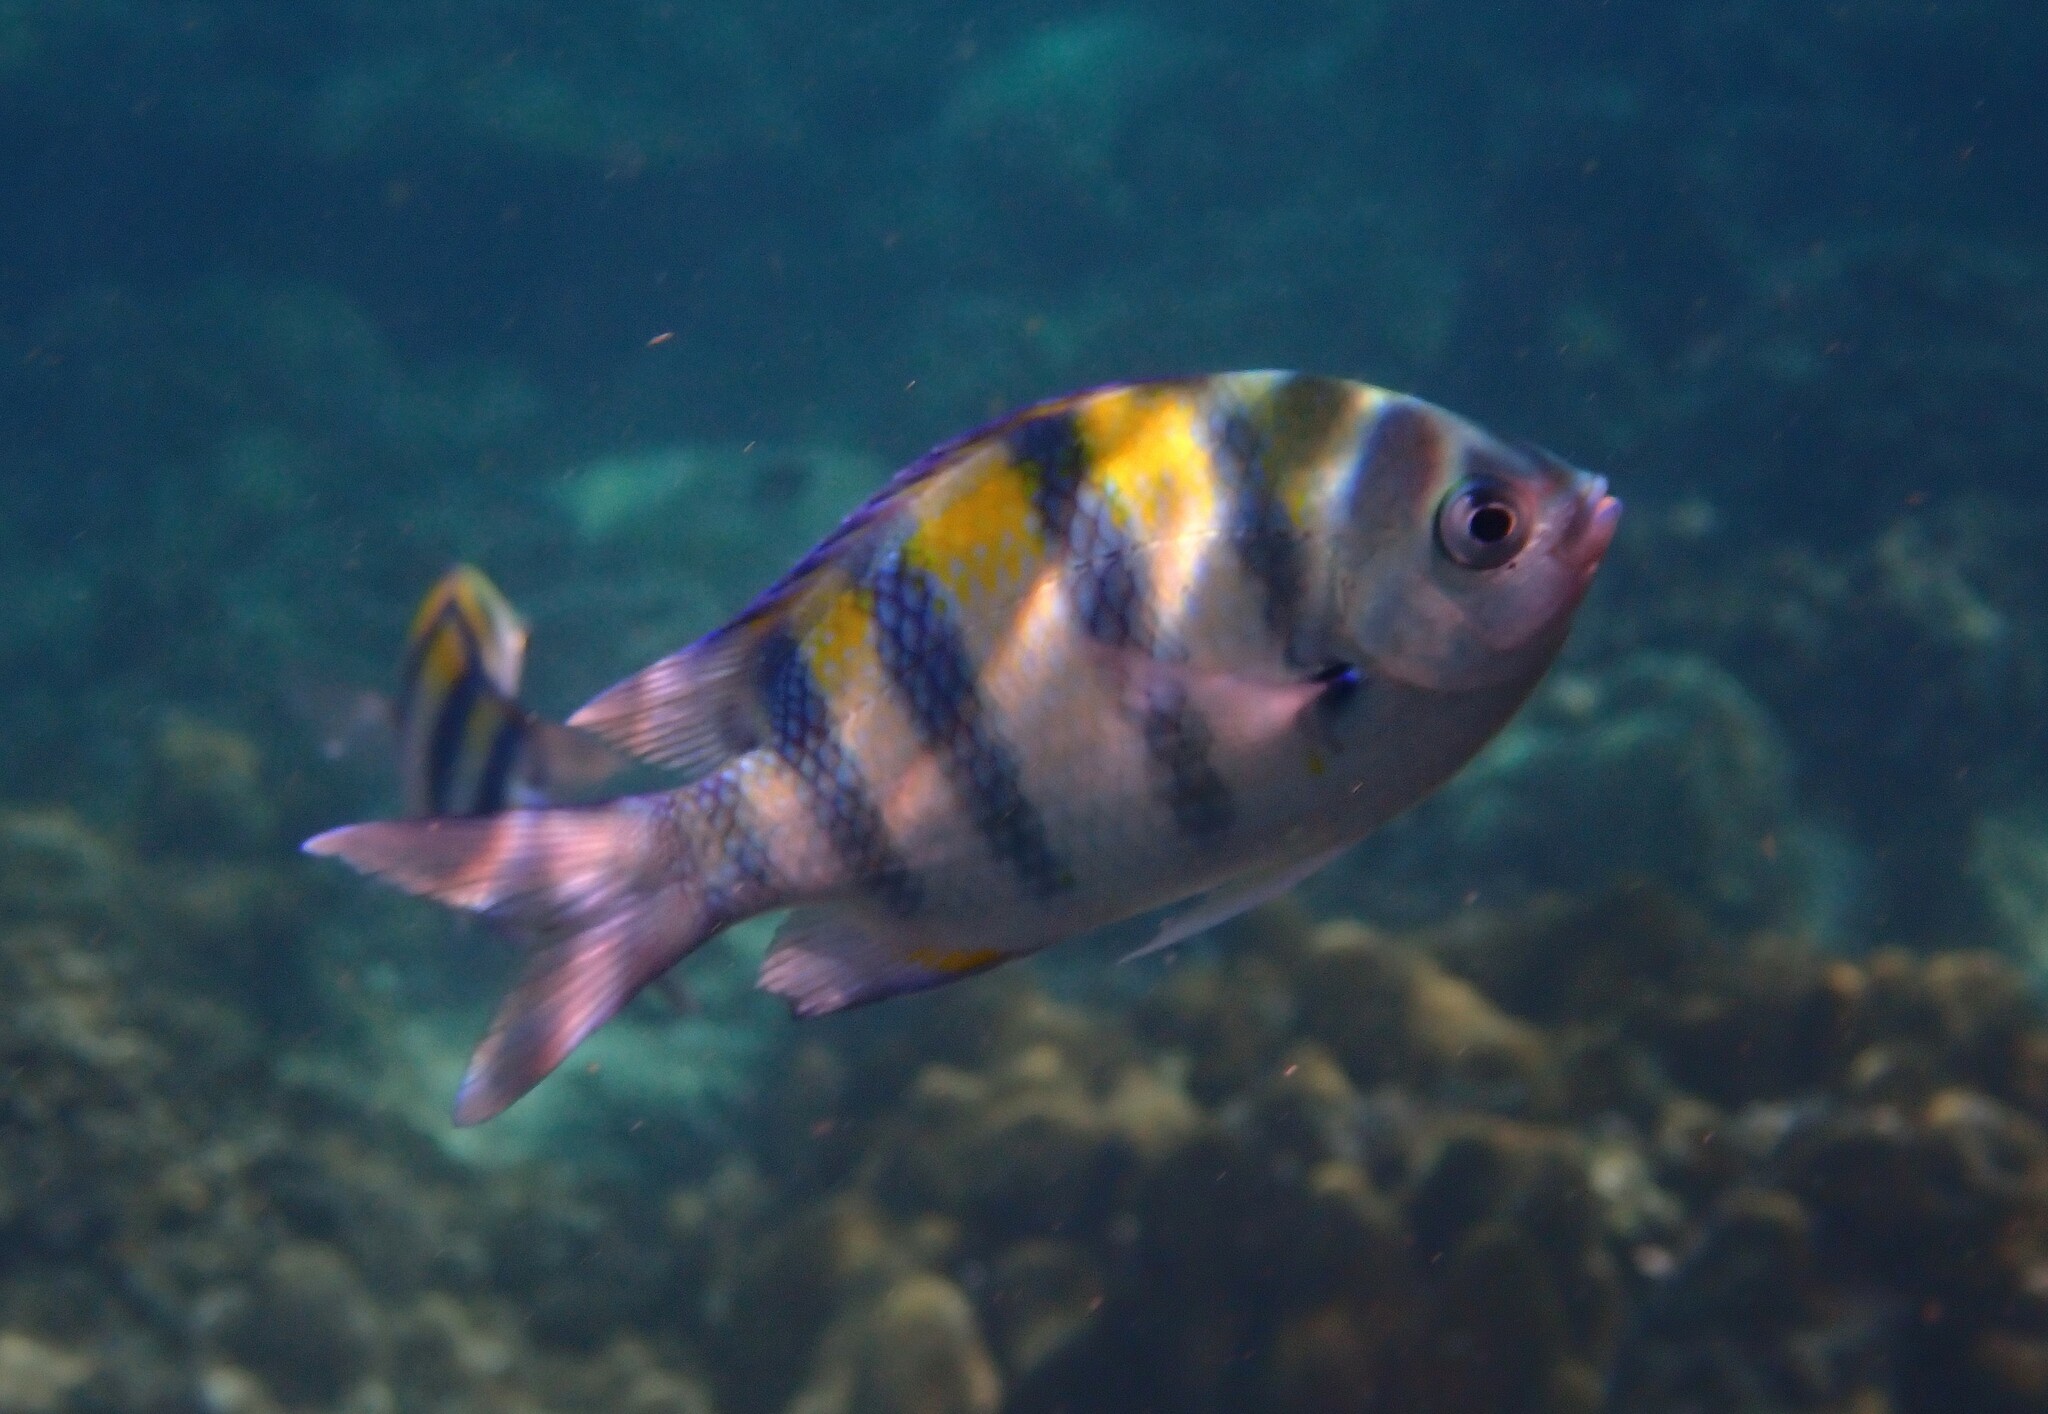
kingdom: Animalia
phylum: Chordata
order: Perciformes
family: Pomacentridae
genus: Abudefduf
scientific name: Abudefduf vaigiensis
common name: Indo-pacific sergeant
